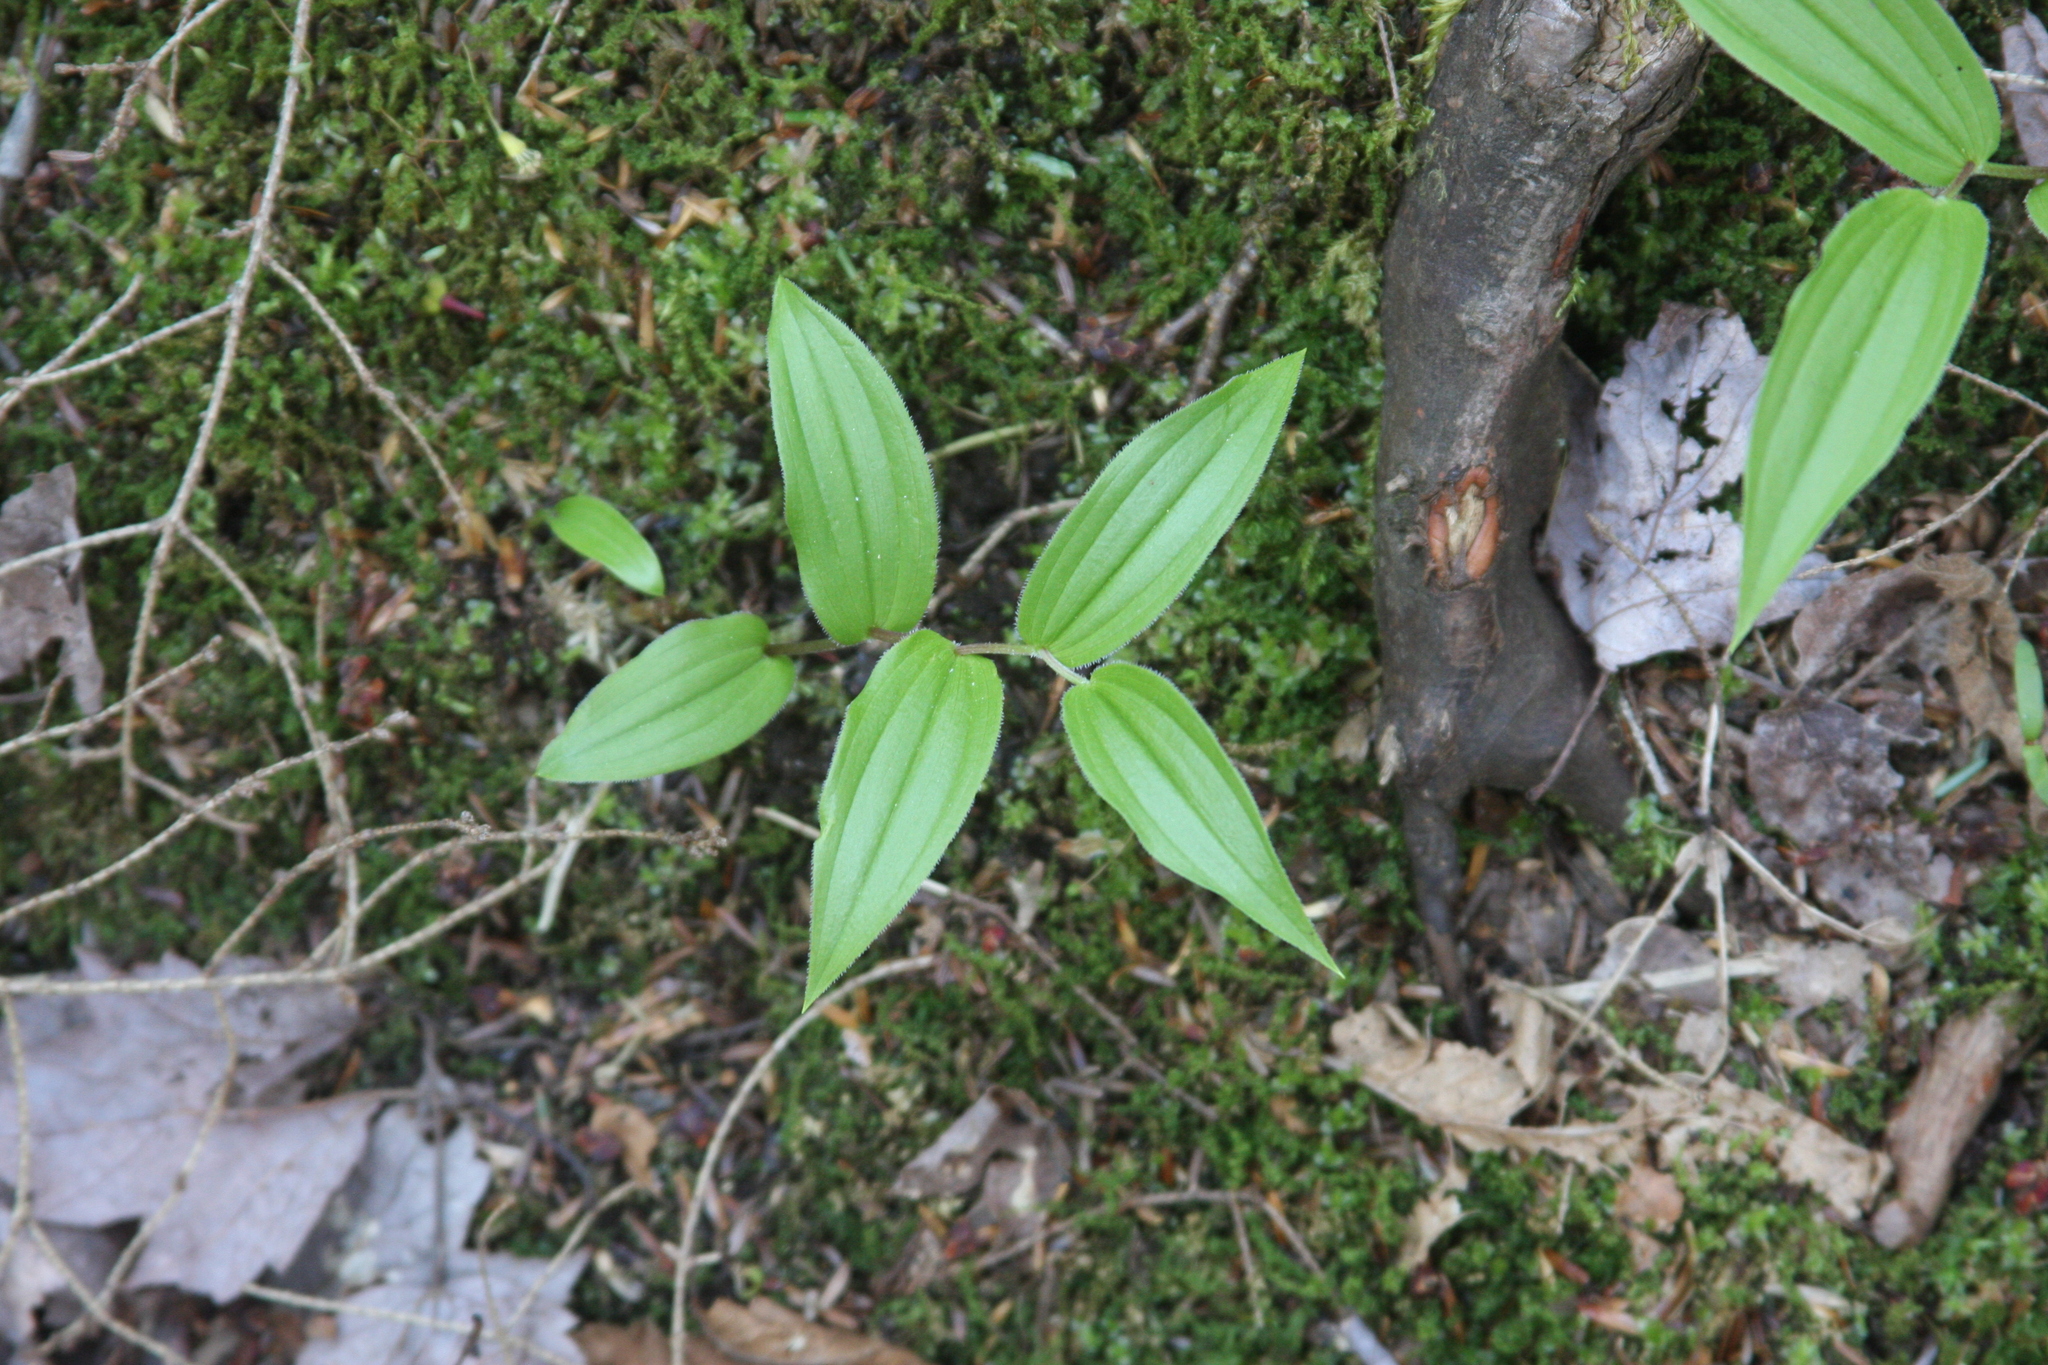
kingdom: Plantae
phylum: Tracheophyta
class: Liliopsida
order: Liliales
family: Liliaceae
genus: Streptopus
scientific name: Streptopus lanceolatus
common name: Rose mandarin
